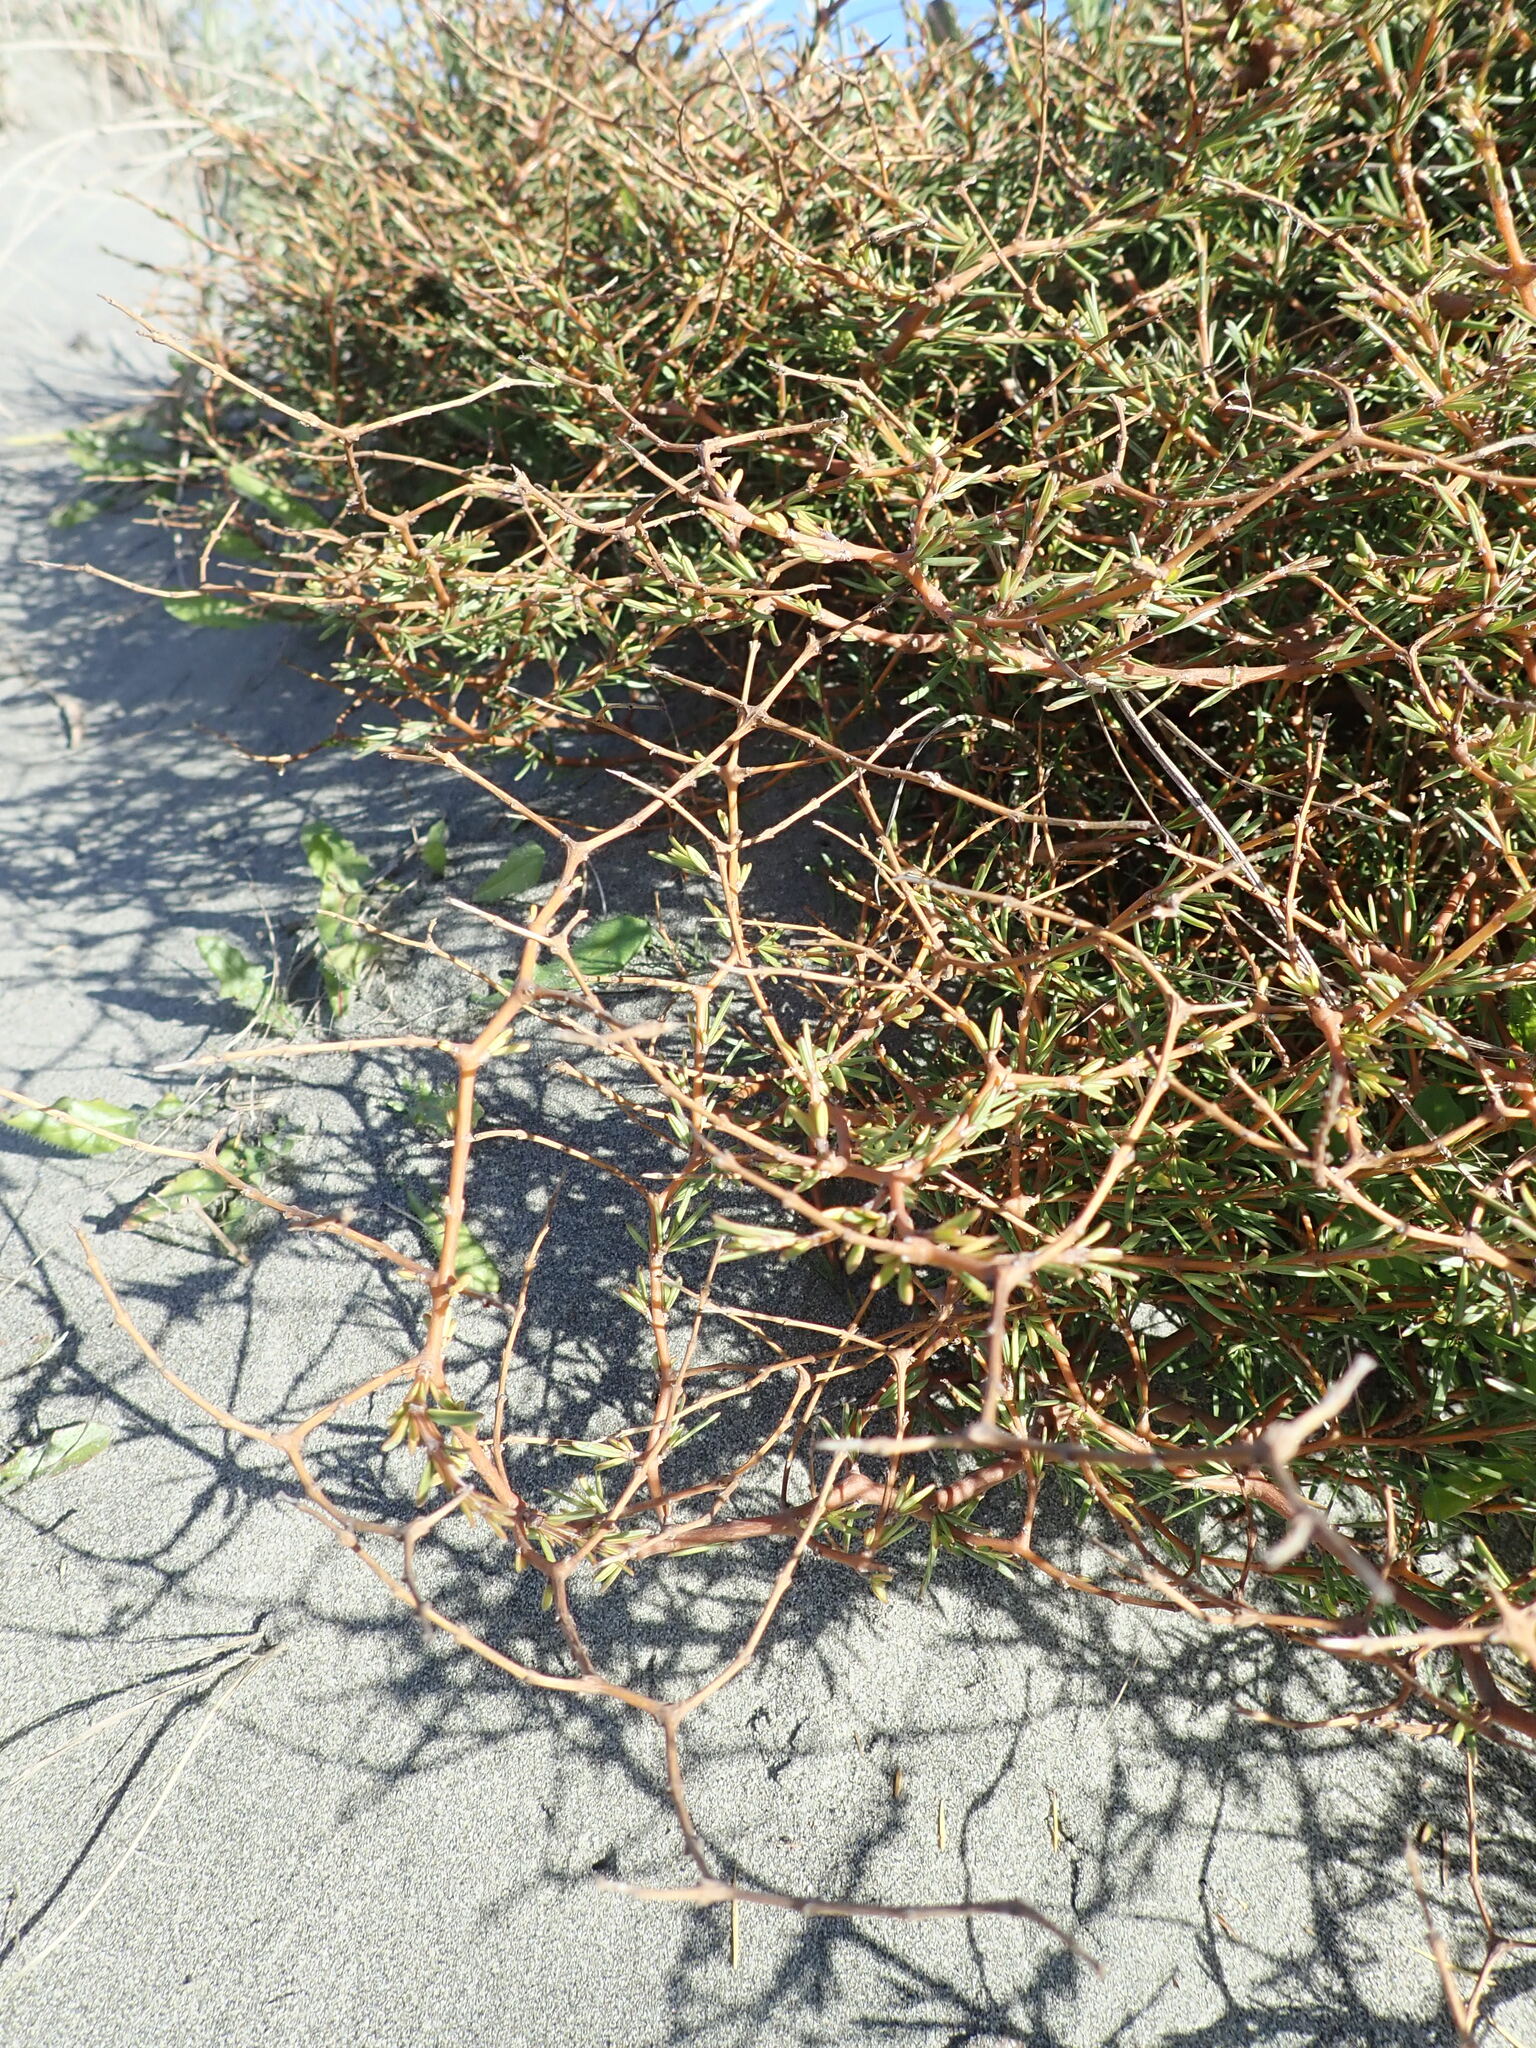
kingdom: Plantae
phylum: Tracheophyta
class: Magnoliopsida
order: Gentianales
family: Rubiaceae
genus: Coprosma
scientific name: Coprosma acerosa
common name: Sand coprosma
